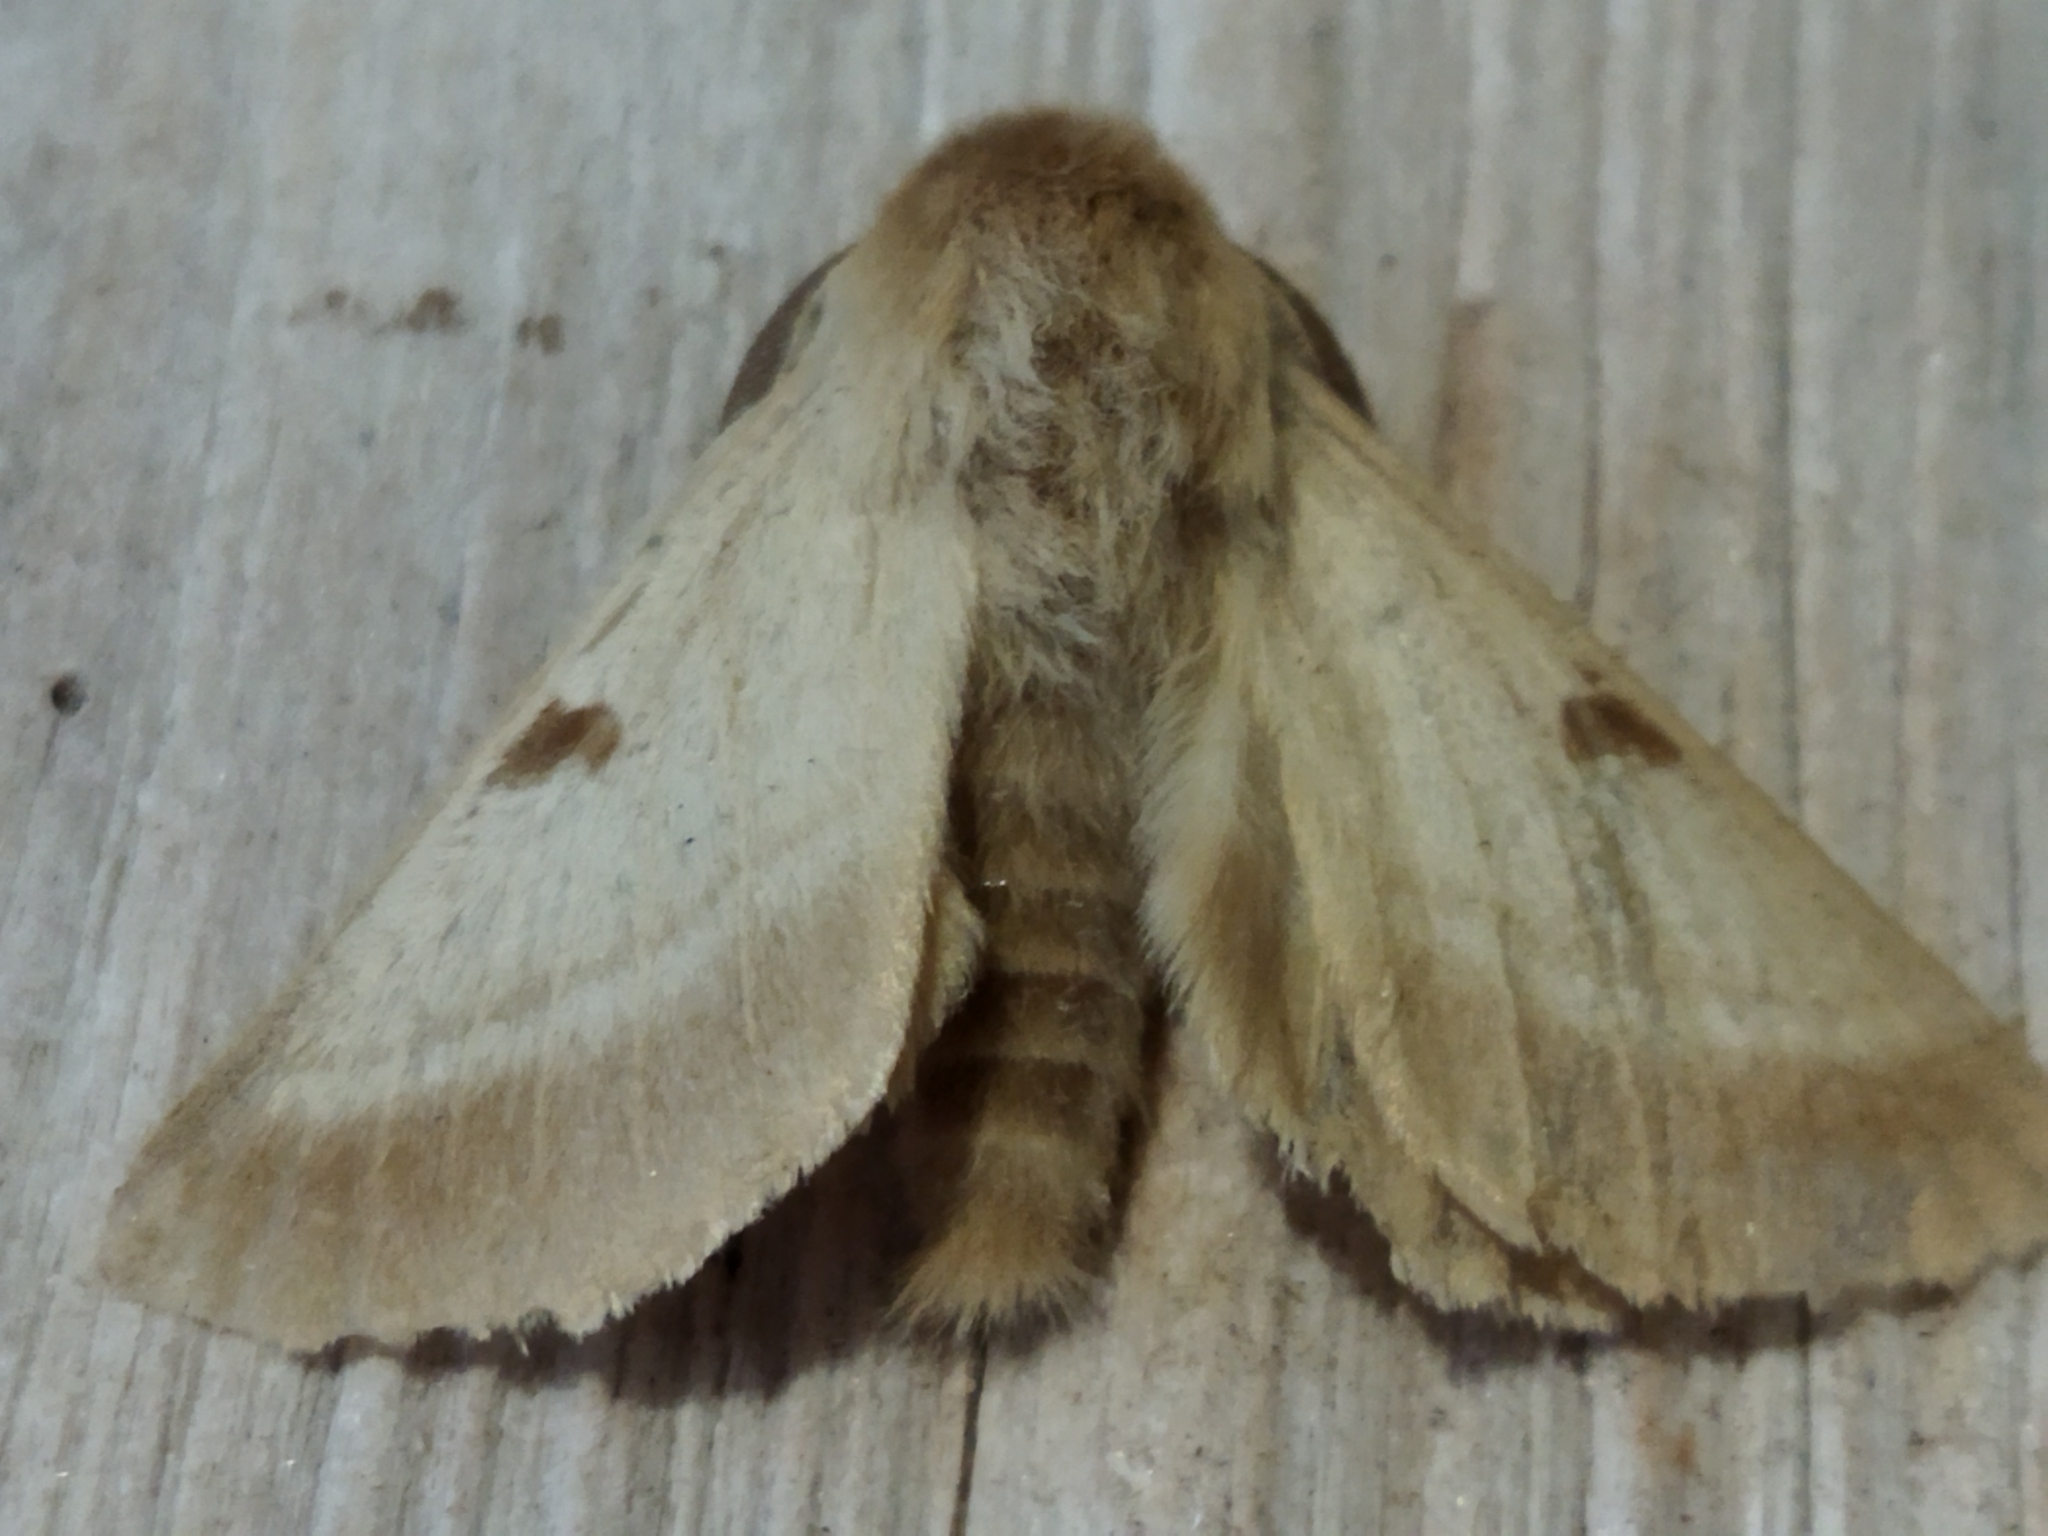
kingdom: Animalia
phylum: Arthropoda
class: Insecta
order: Lepidoptera
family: Brahmaeidae
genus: Lemonia
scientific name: Lemonia balcanica
